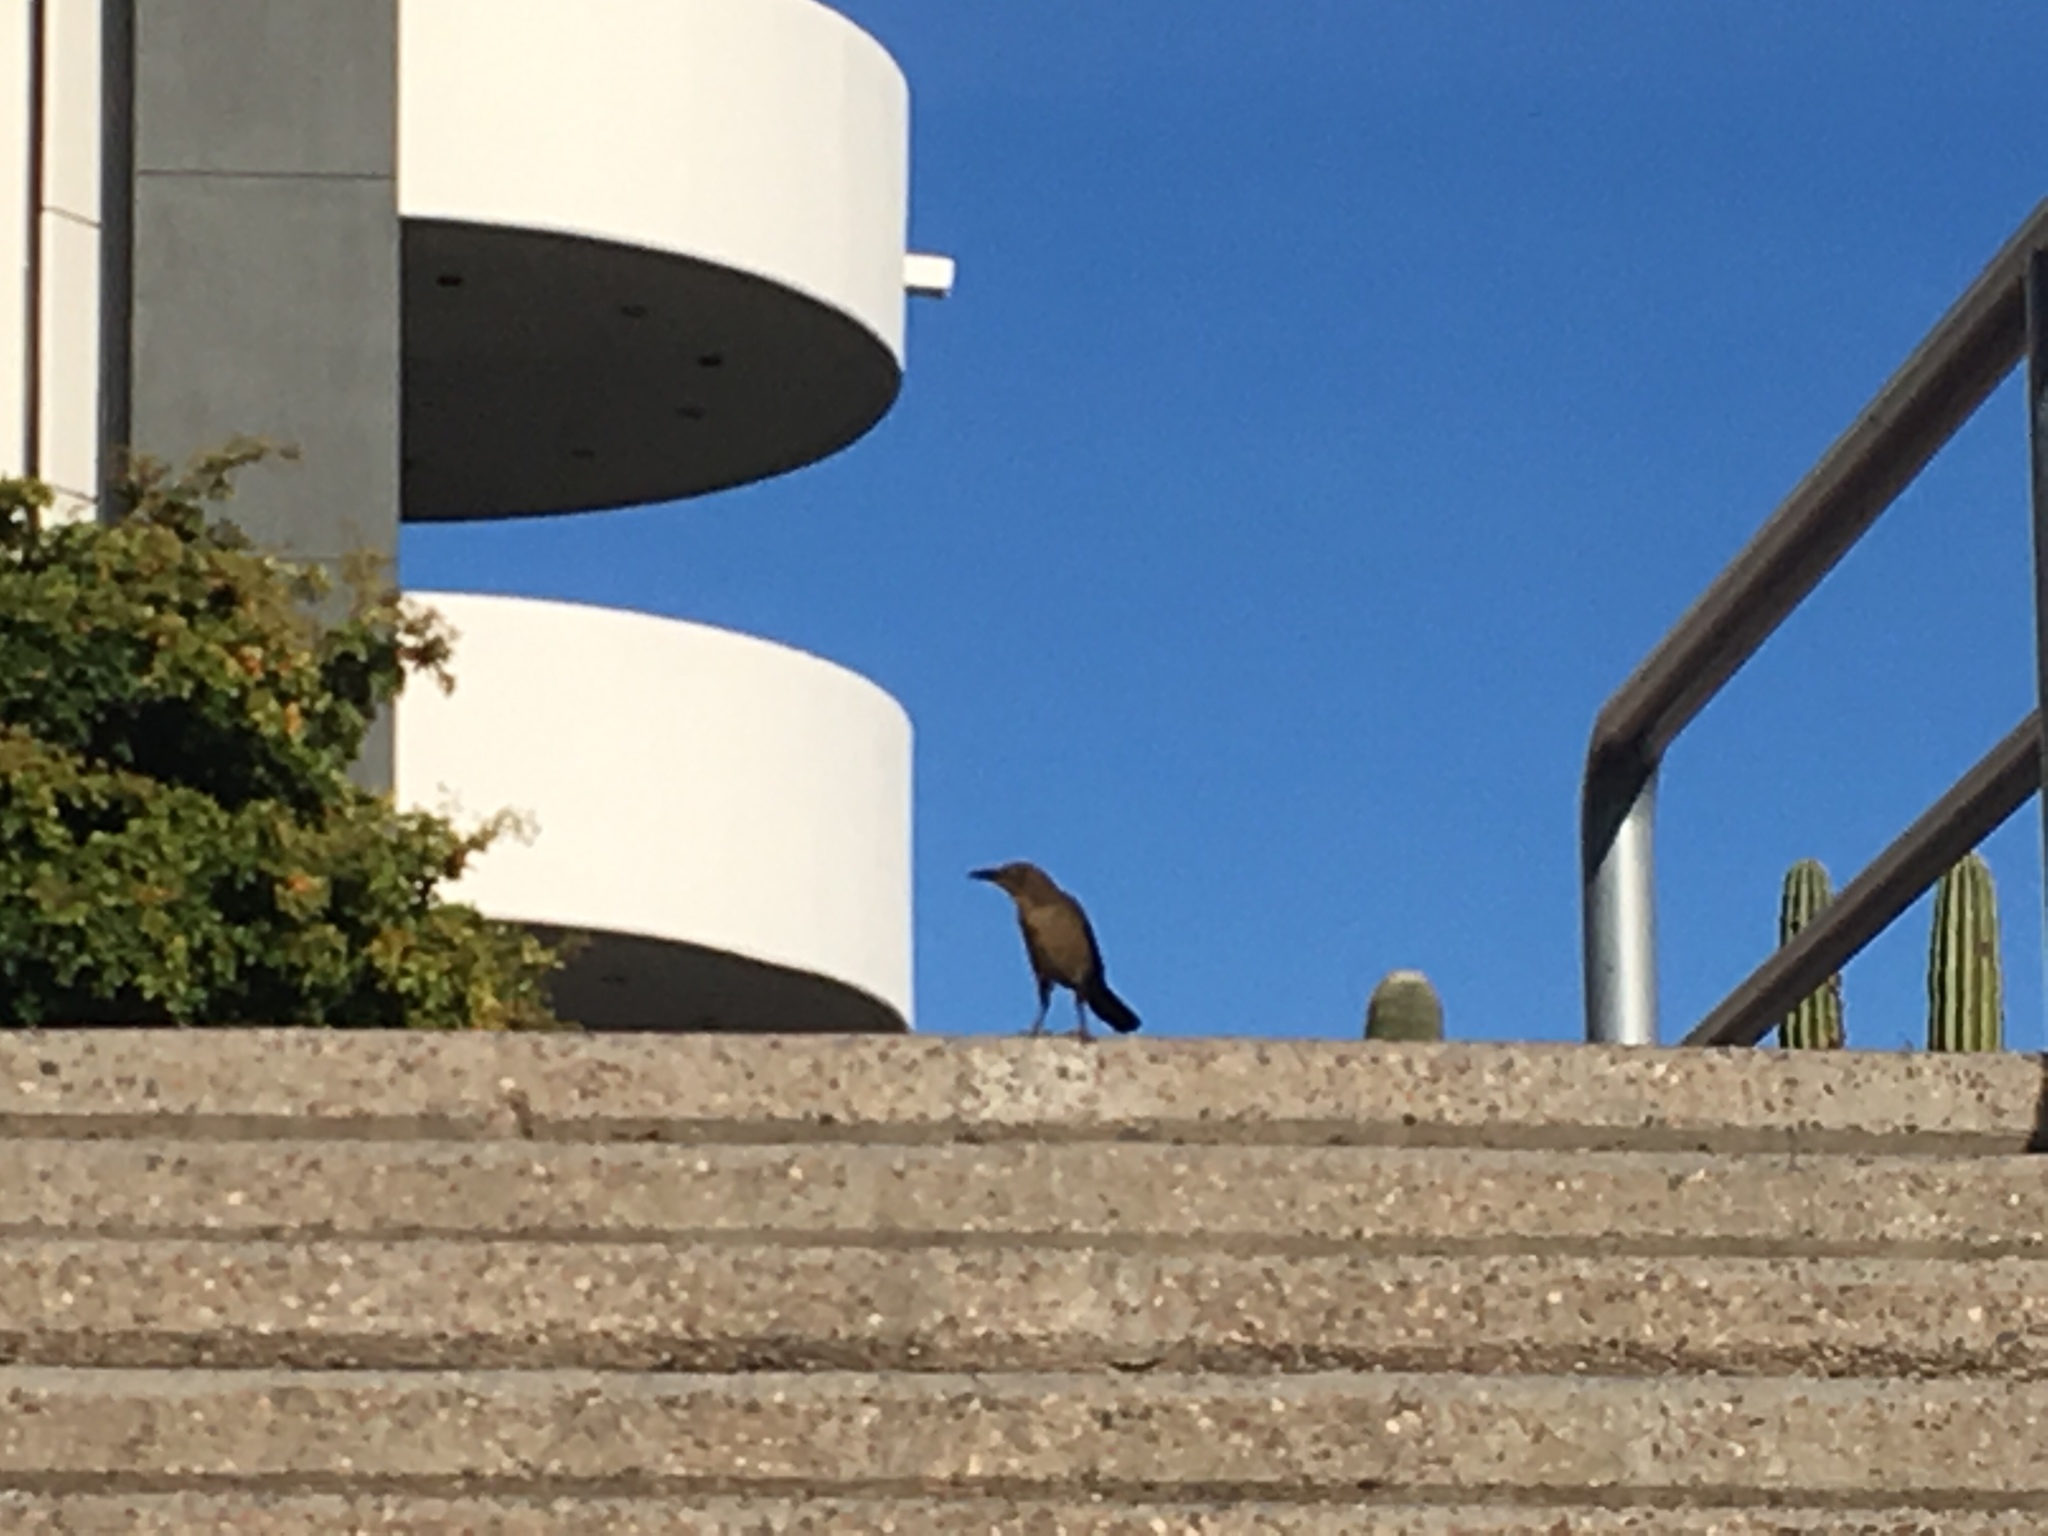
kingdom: Animalia
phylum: Chordata
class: Aves
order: Passeriformes
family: Icteridae
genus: Quiscalus
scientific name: Quiscalus mexicanus
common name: Great-tailed grackle
